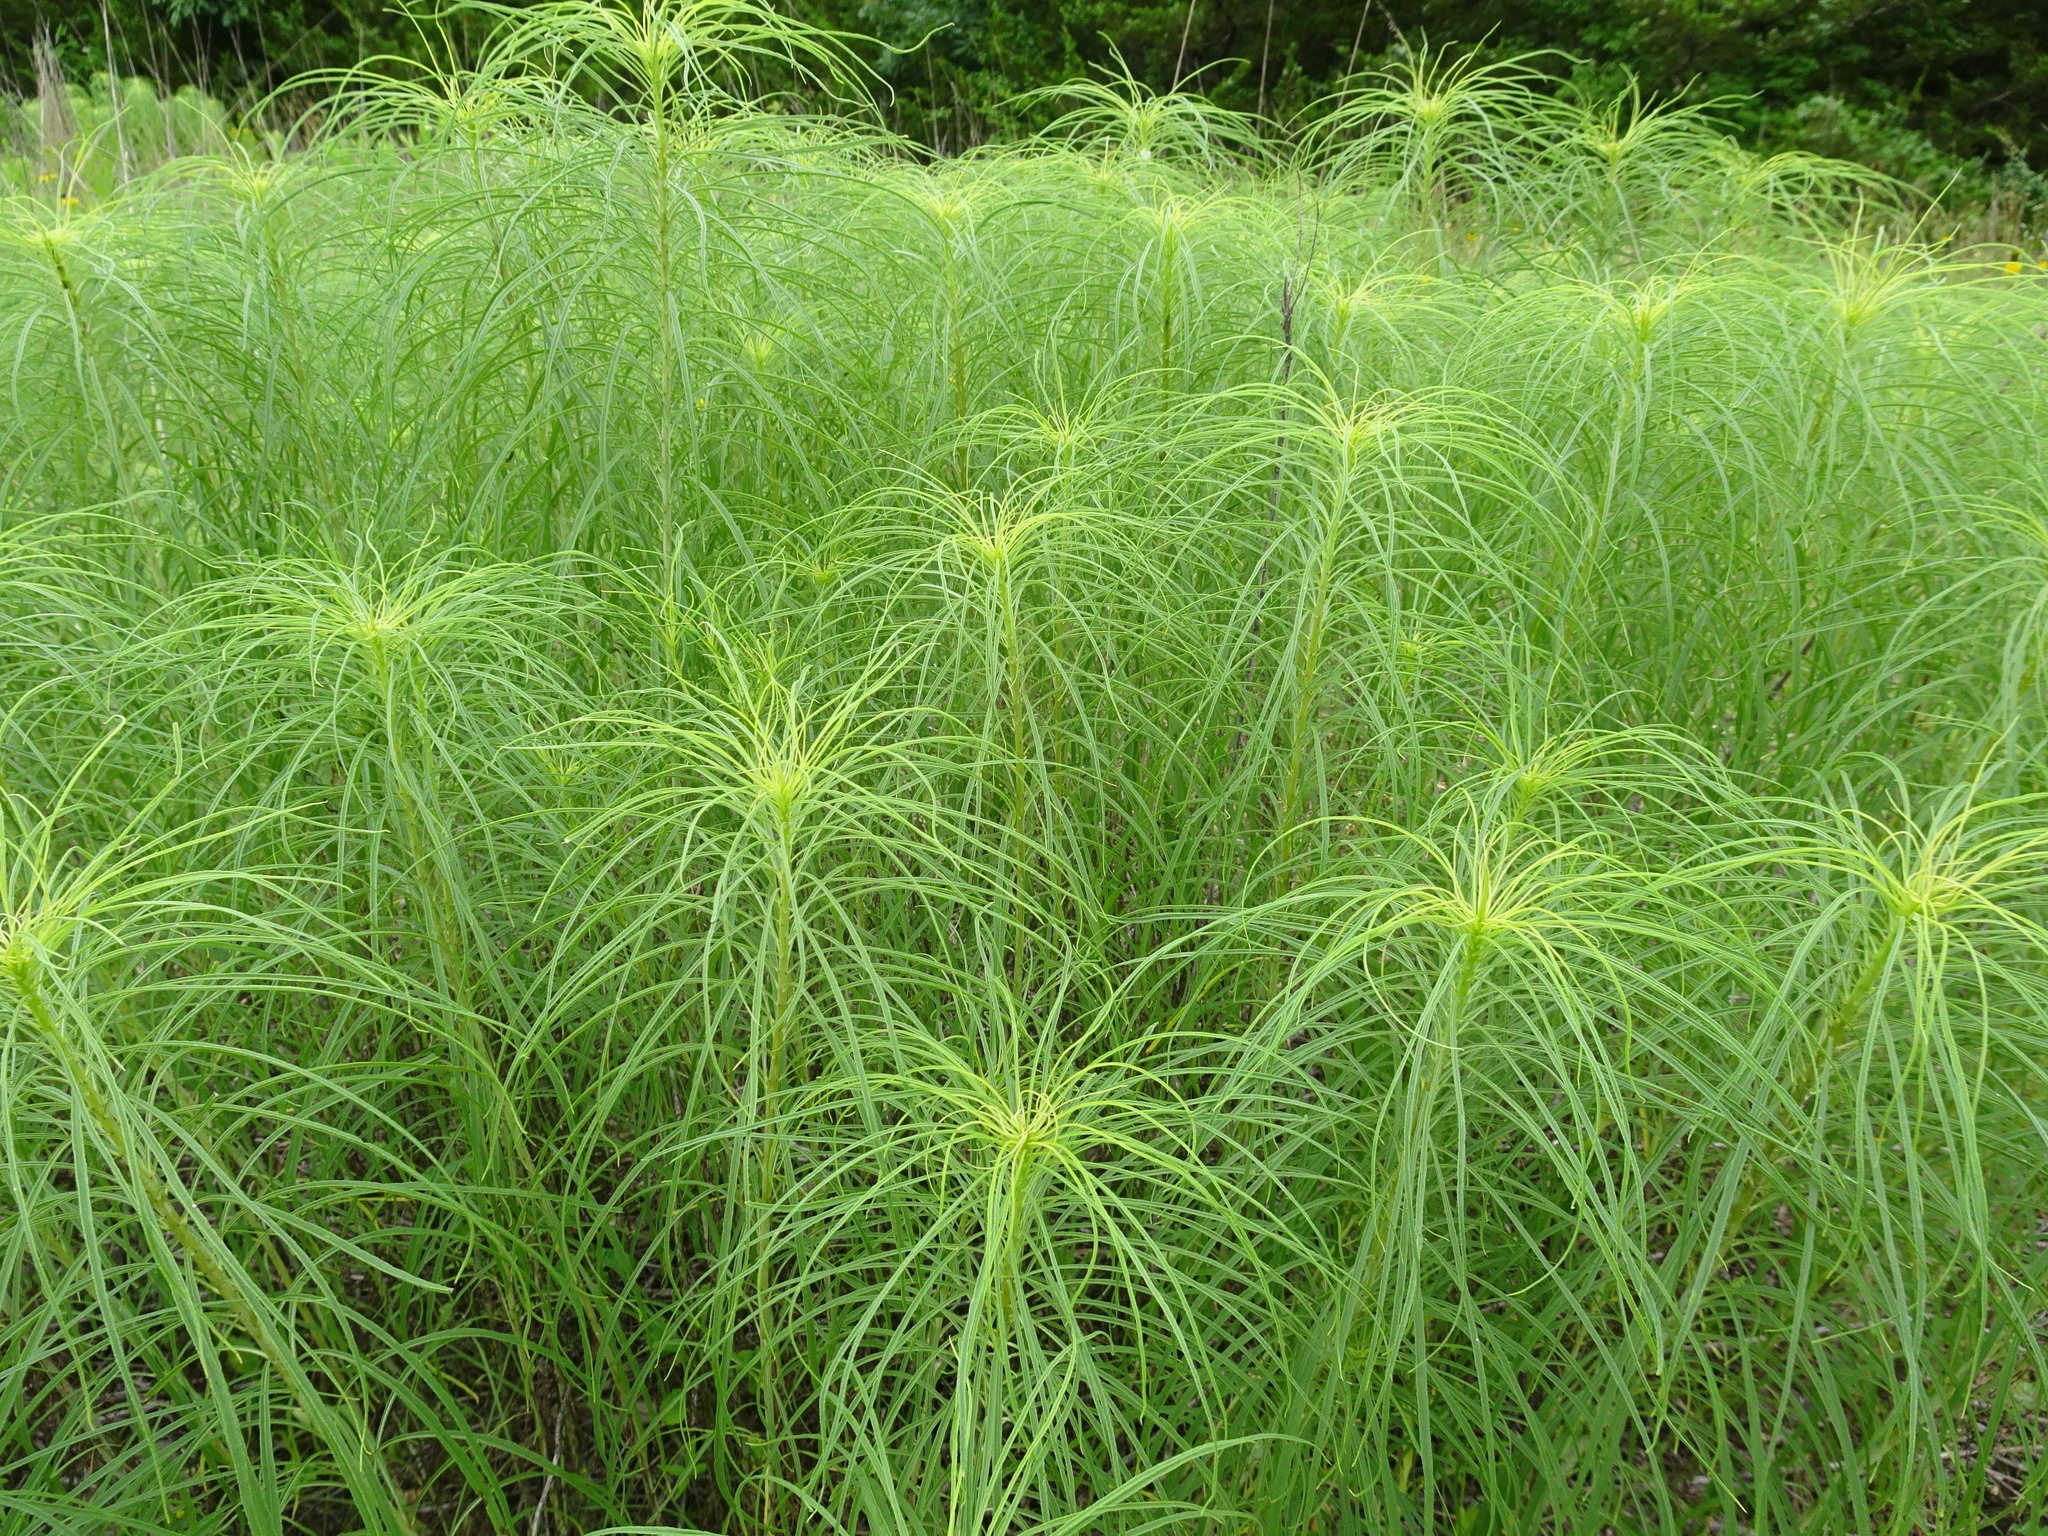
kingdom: Plantae
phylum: Tracheophyta
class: Magnoliopsida
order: Asterales
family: Asteraceae
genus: Helianthus
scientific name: Helianthus salicifolius
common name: Willowleaf sunflower
